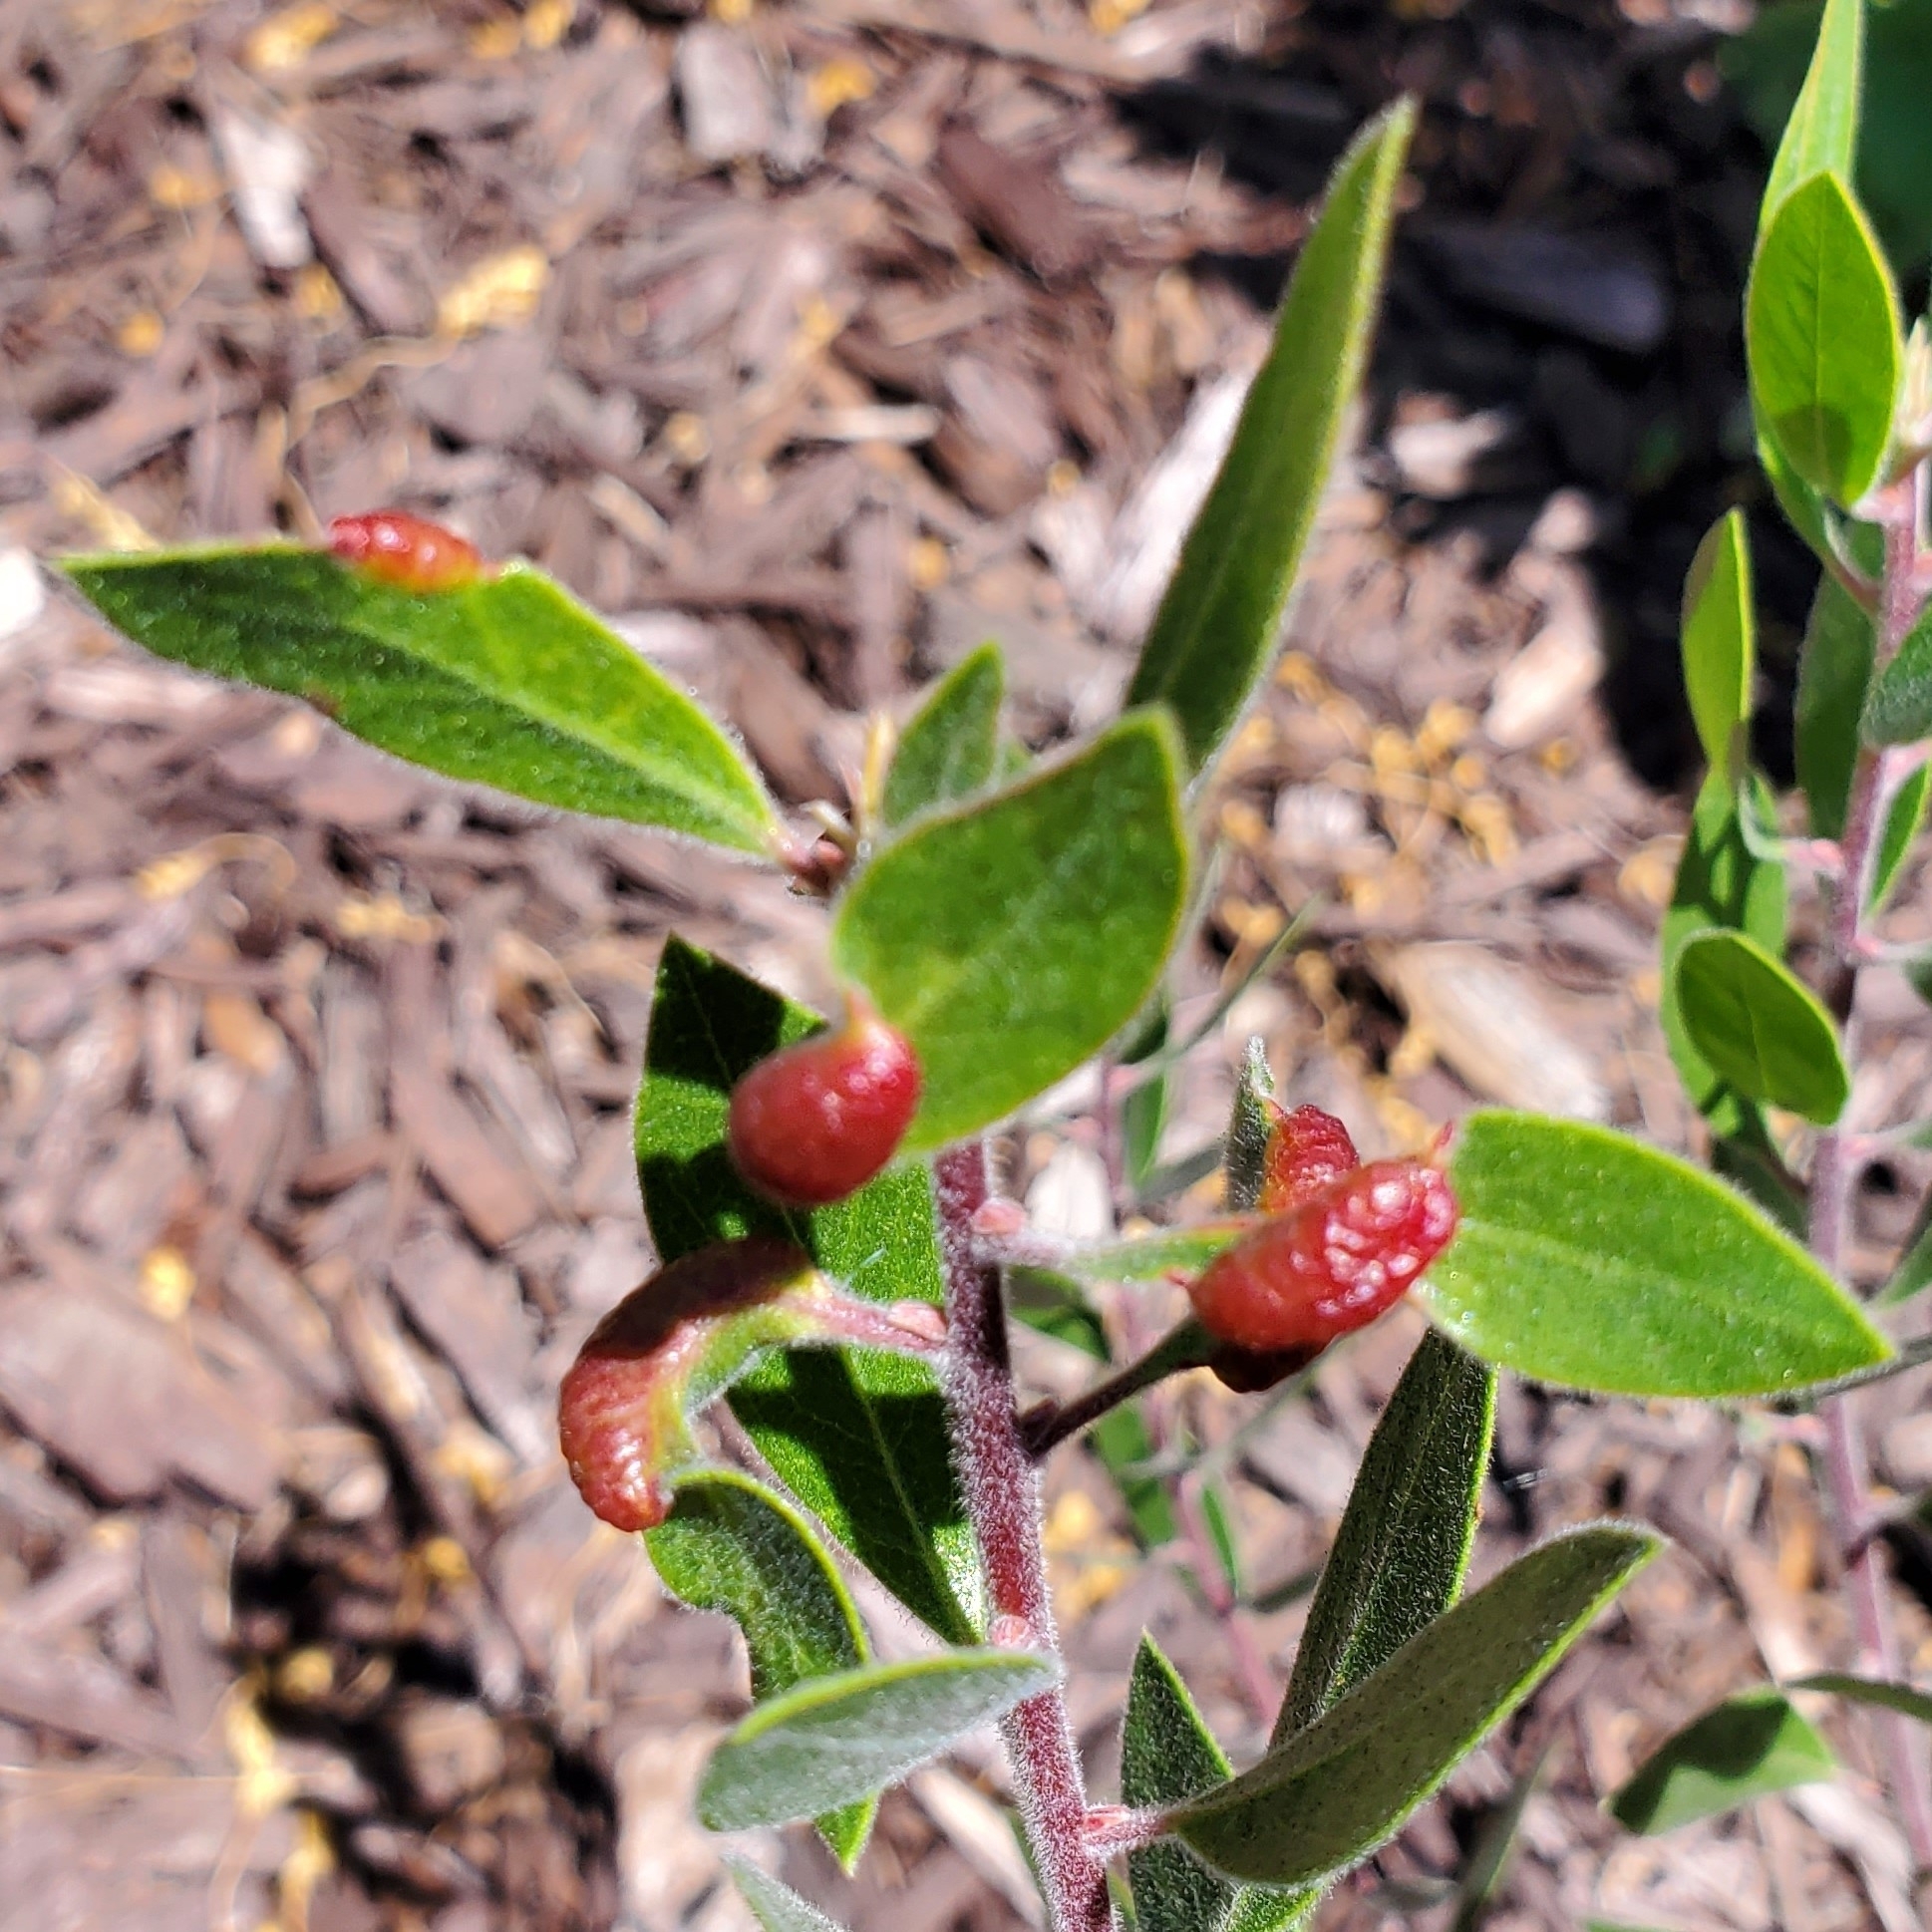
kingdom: Animalia
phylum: Arthropoda
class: Insecta
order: Hemiptera
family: Aphididae
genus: Tamalia
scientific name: Tamalia coweni
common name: Manzanita leafgall aphid
